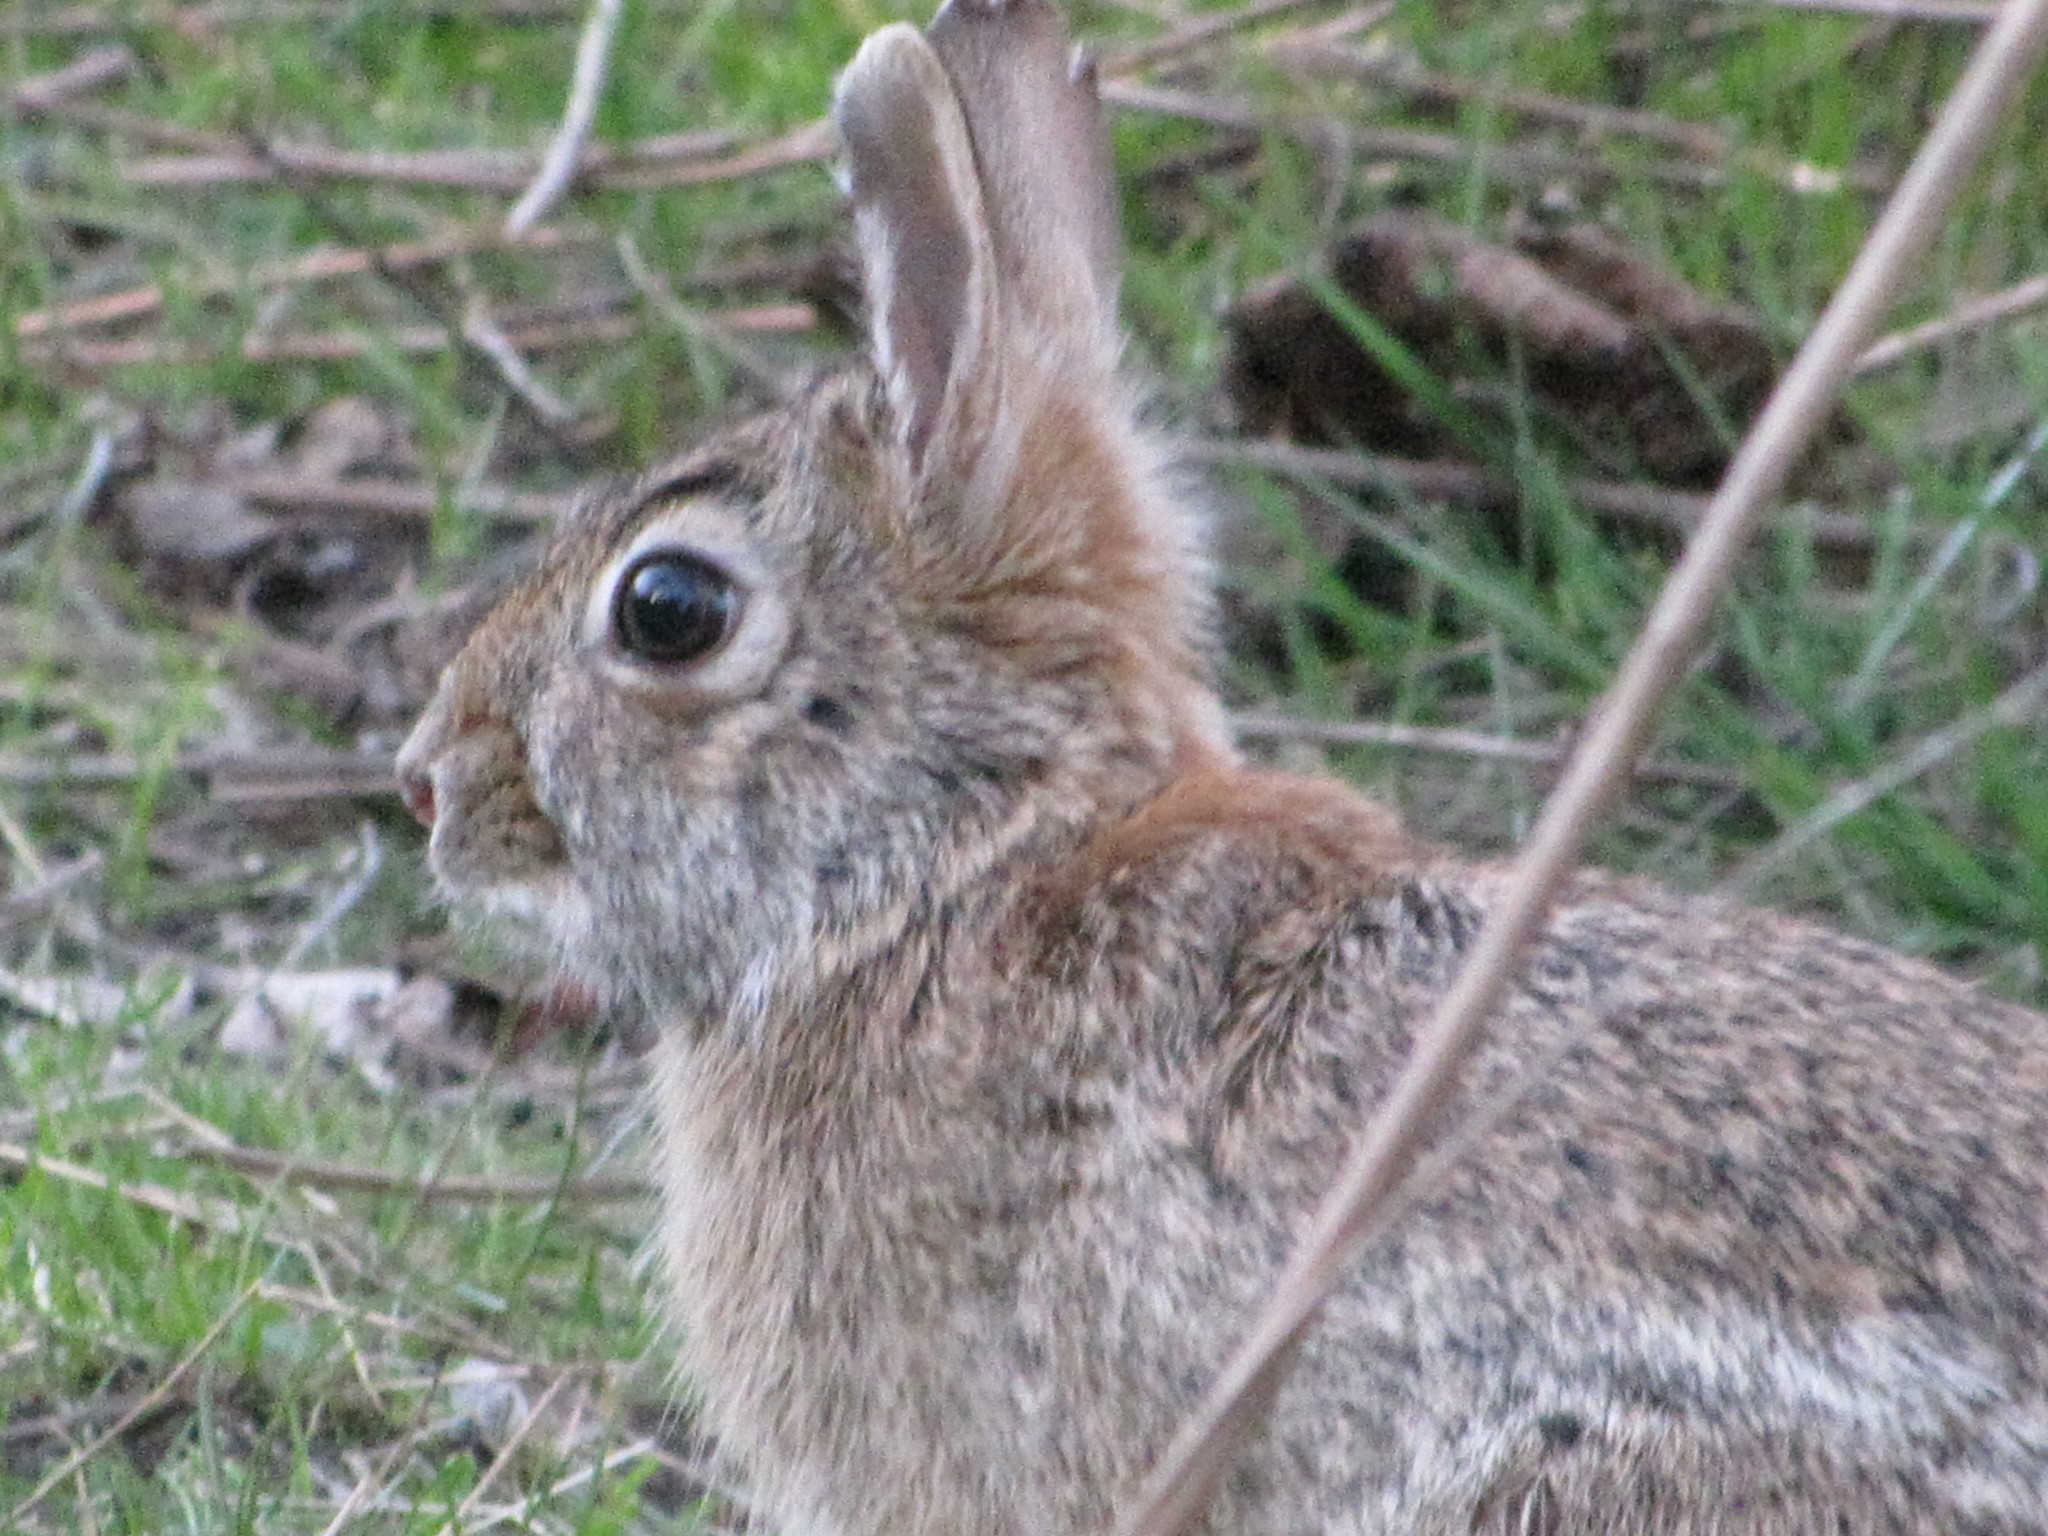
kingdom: Animalia
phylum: Chordata
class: Mammalia
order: Lagomorpha
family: Leporidae
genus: Sylvilagus
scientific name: Sylvilagus floridanus
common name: Eastern cottontail
